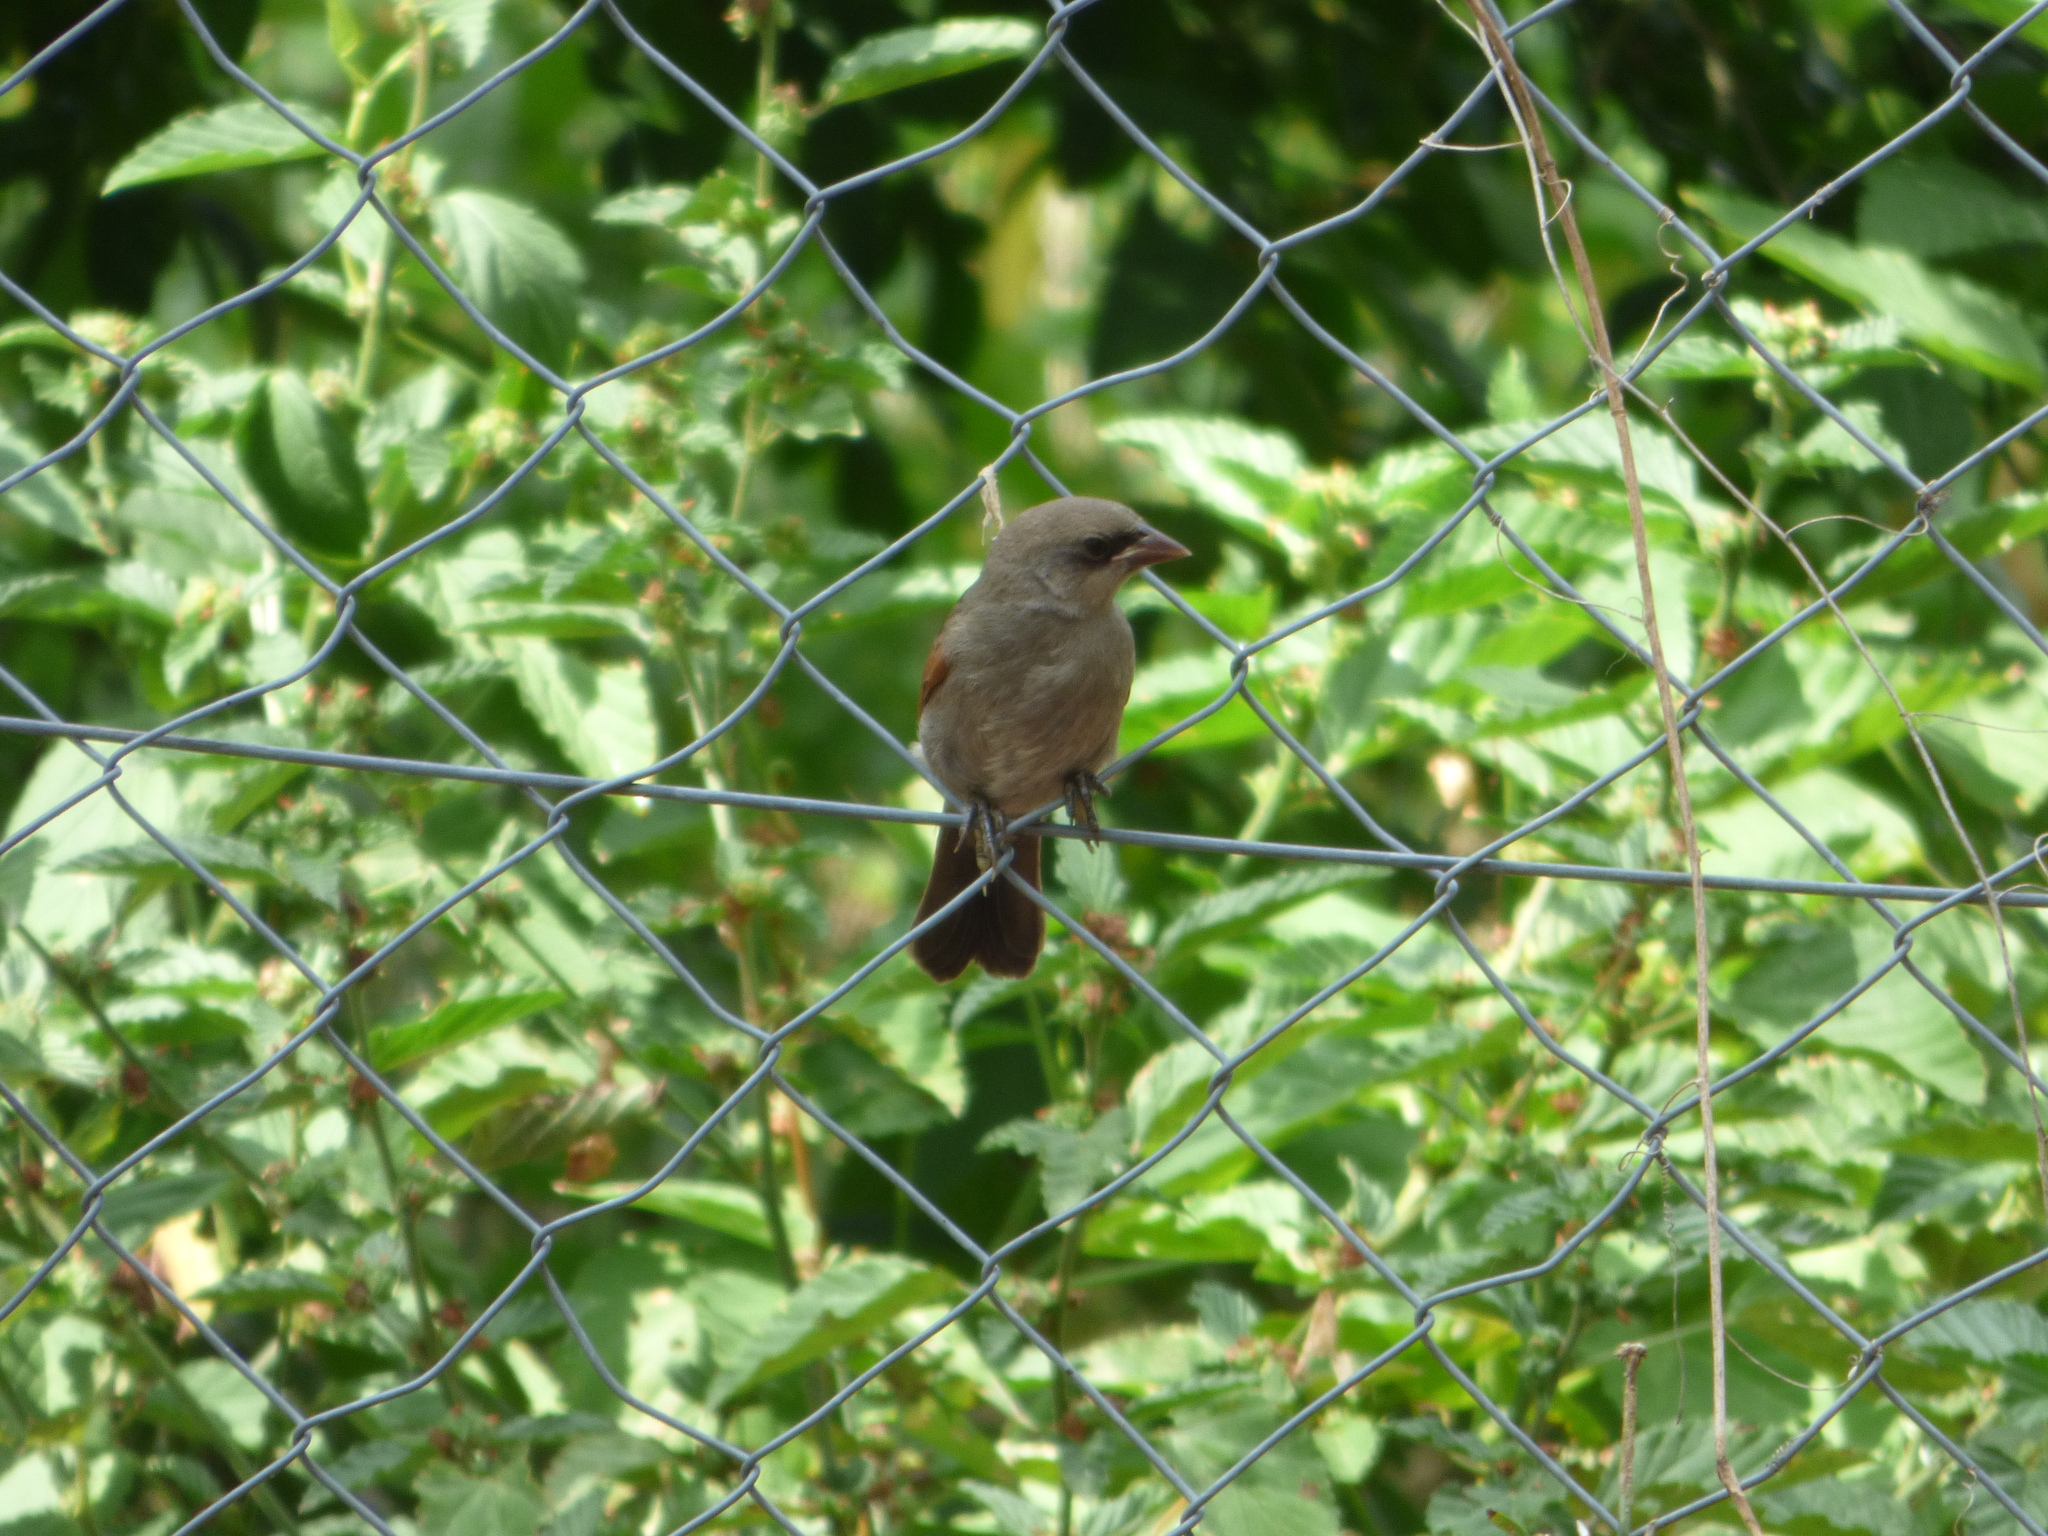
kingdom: Animalia
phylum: Chordata
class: Aves
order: Passeriformes
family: Icteridae
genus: Agelaioides
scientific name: Agelaioides badius
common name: Baywing
